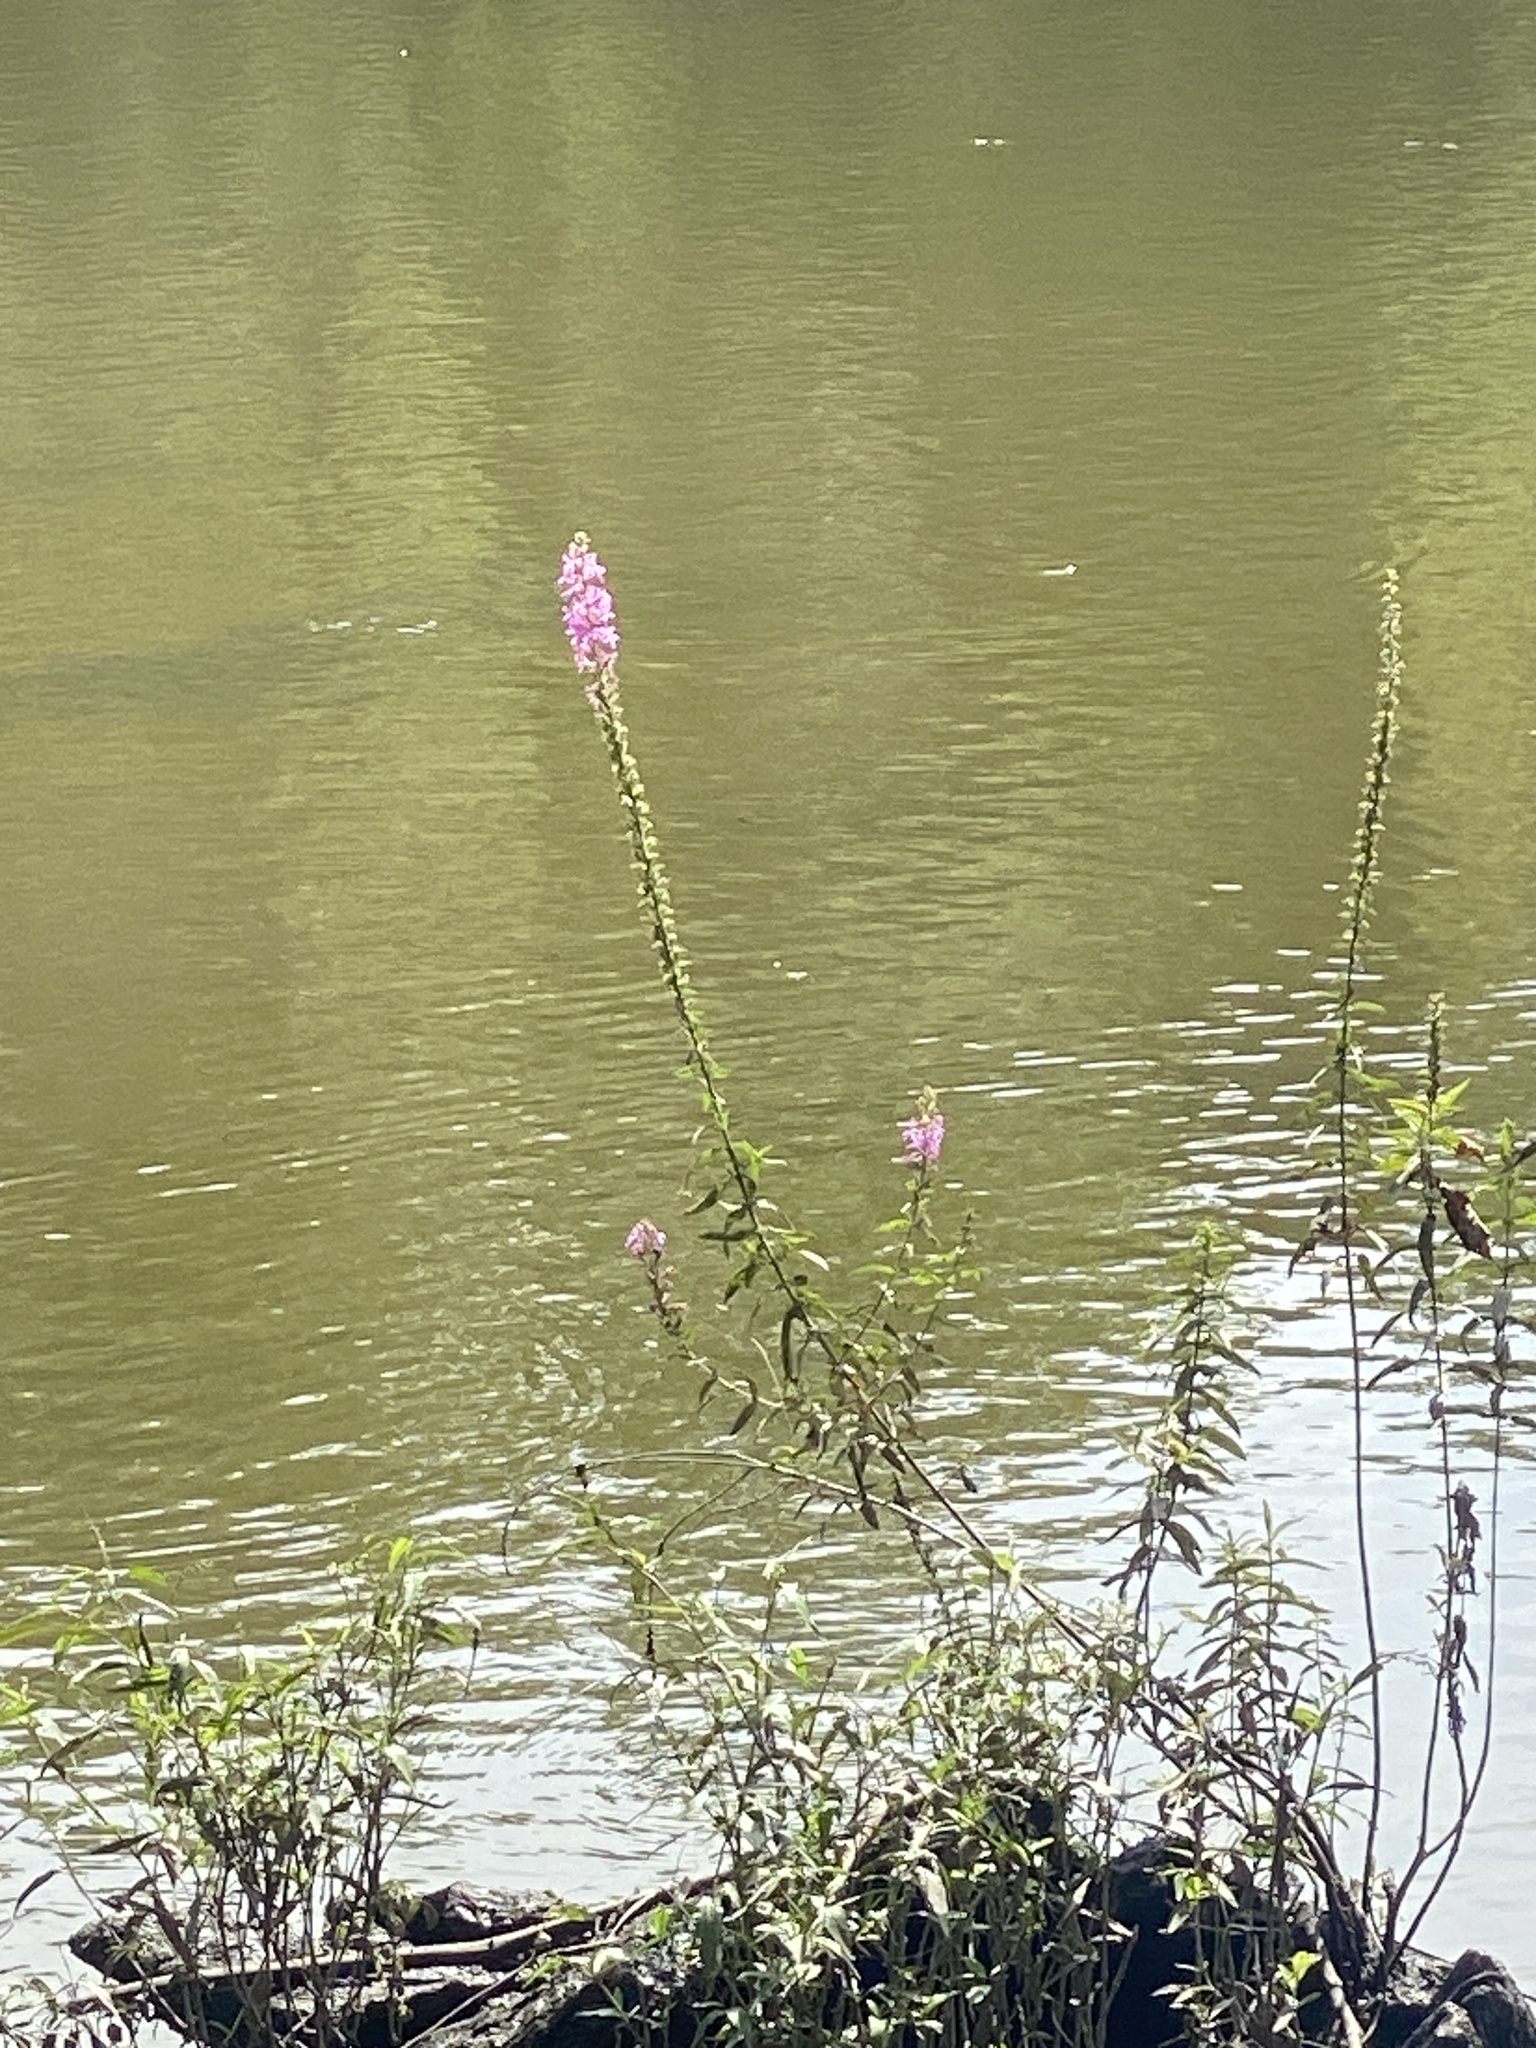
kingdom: Plantae
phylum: Tracheophyta
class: Magnoliopsida
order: Myrtales
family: Lythraceae
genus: Lythrum
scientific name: Lythrum salicaria
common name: Purple loosestrife
